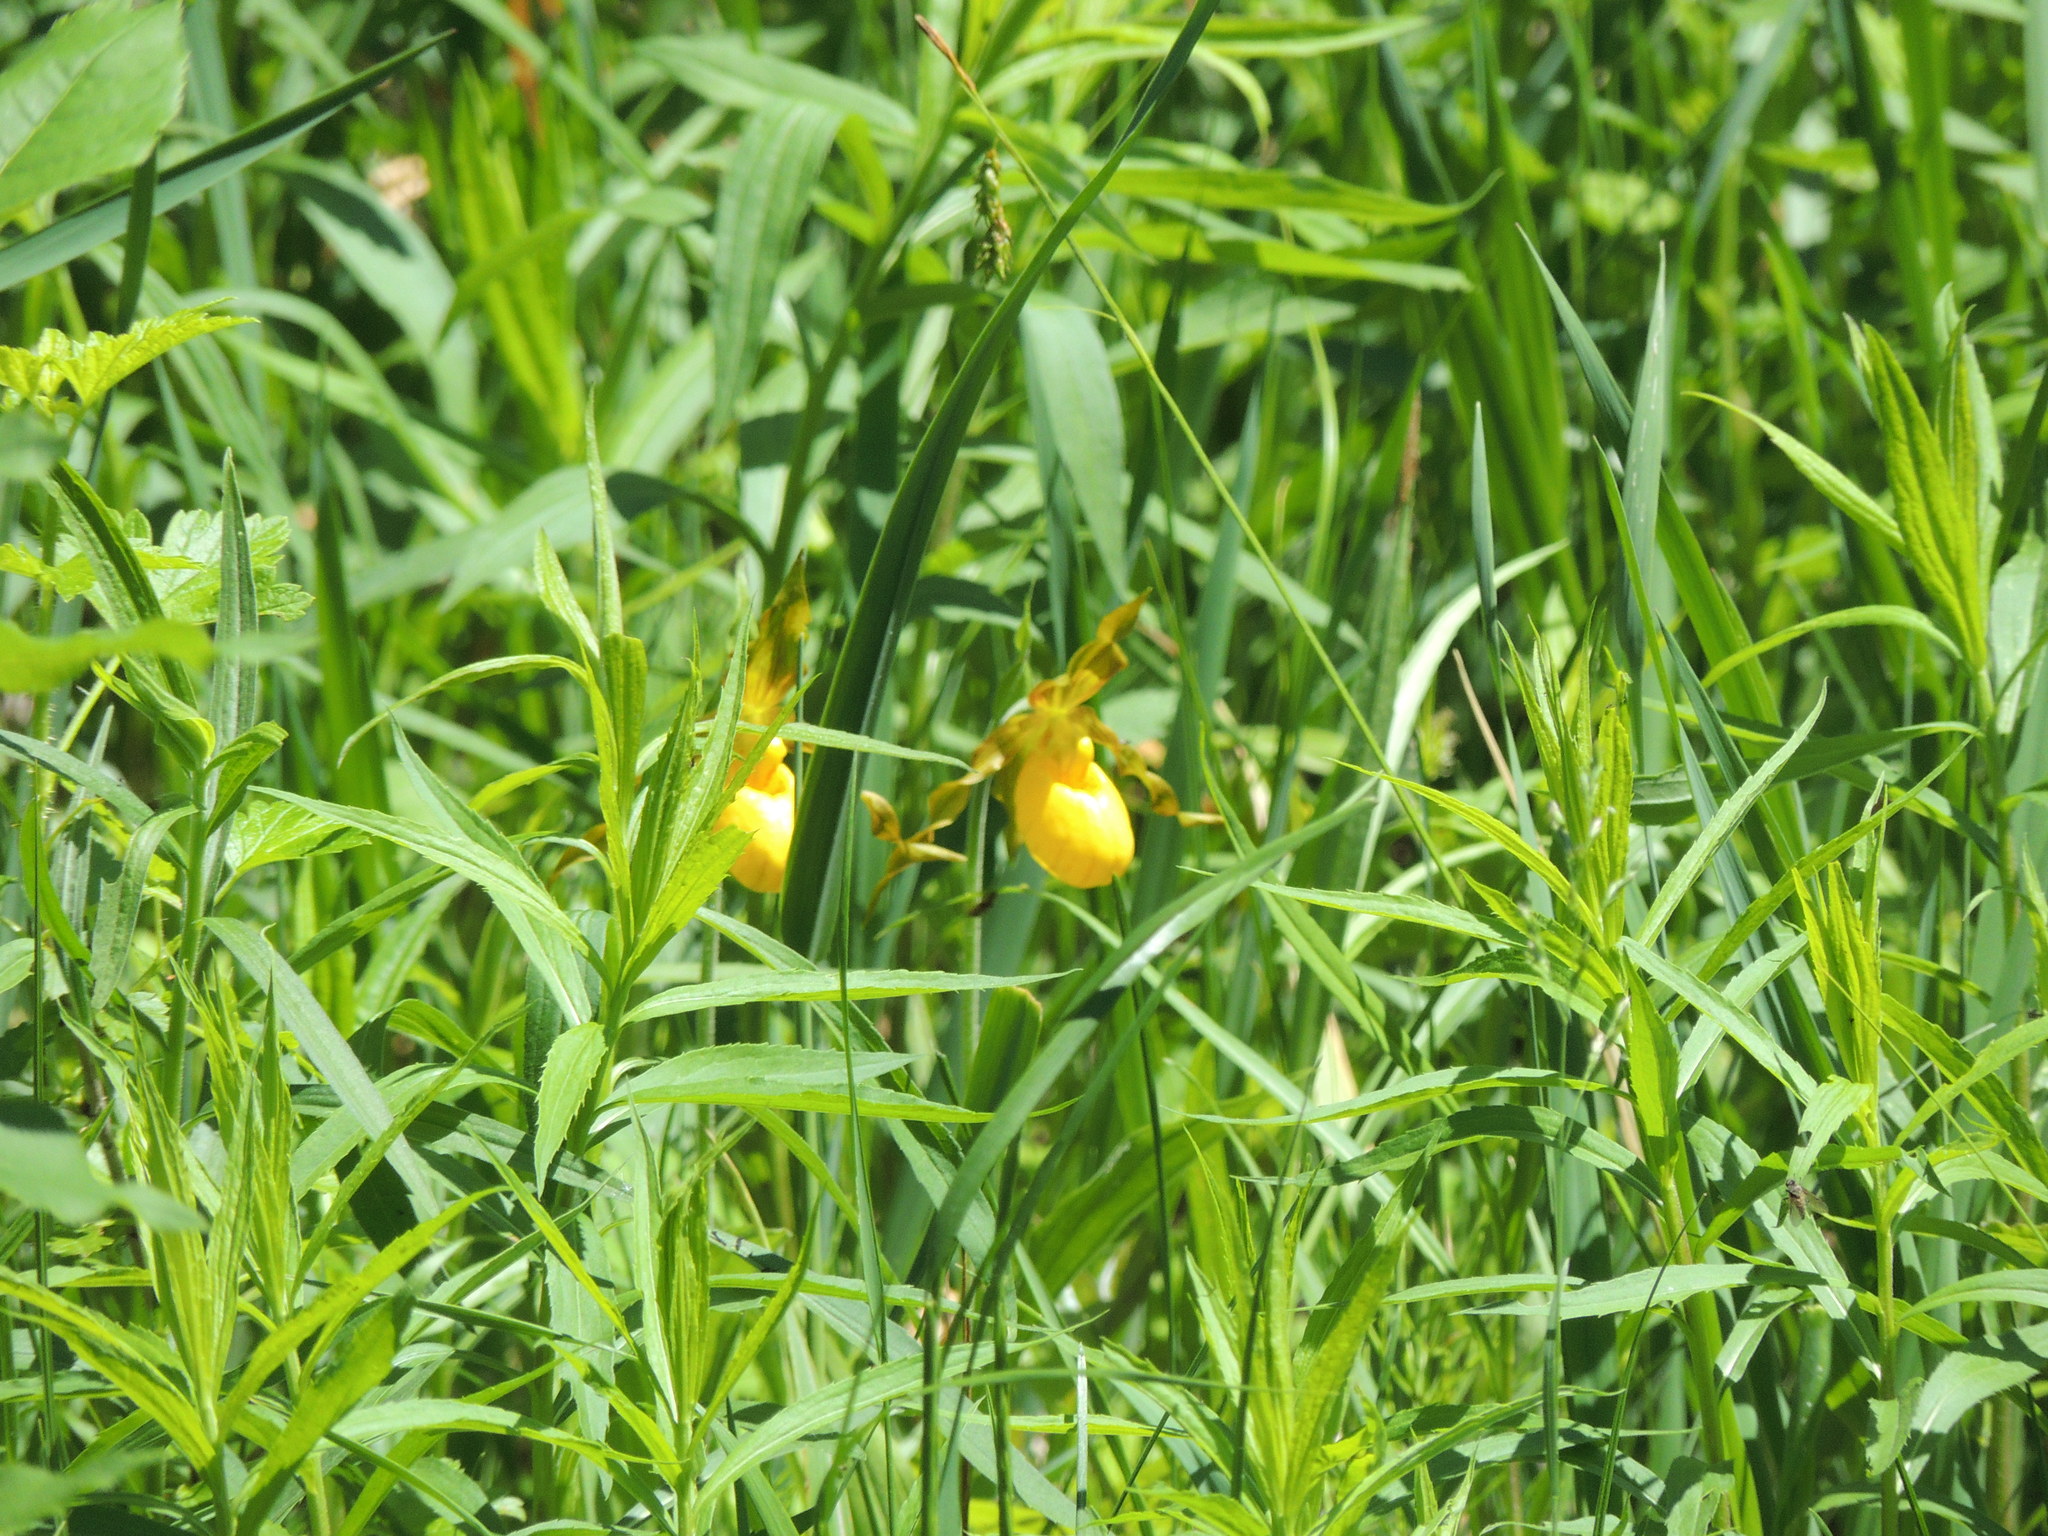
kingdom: Plantae
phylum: Tracheophyta
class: Liliopsida
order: Asparagales
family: Orchidaceae
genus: Cypripedium
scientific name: Cypripedium parviflorum
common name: American yellow lady's-slipper
